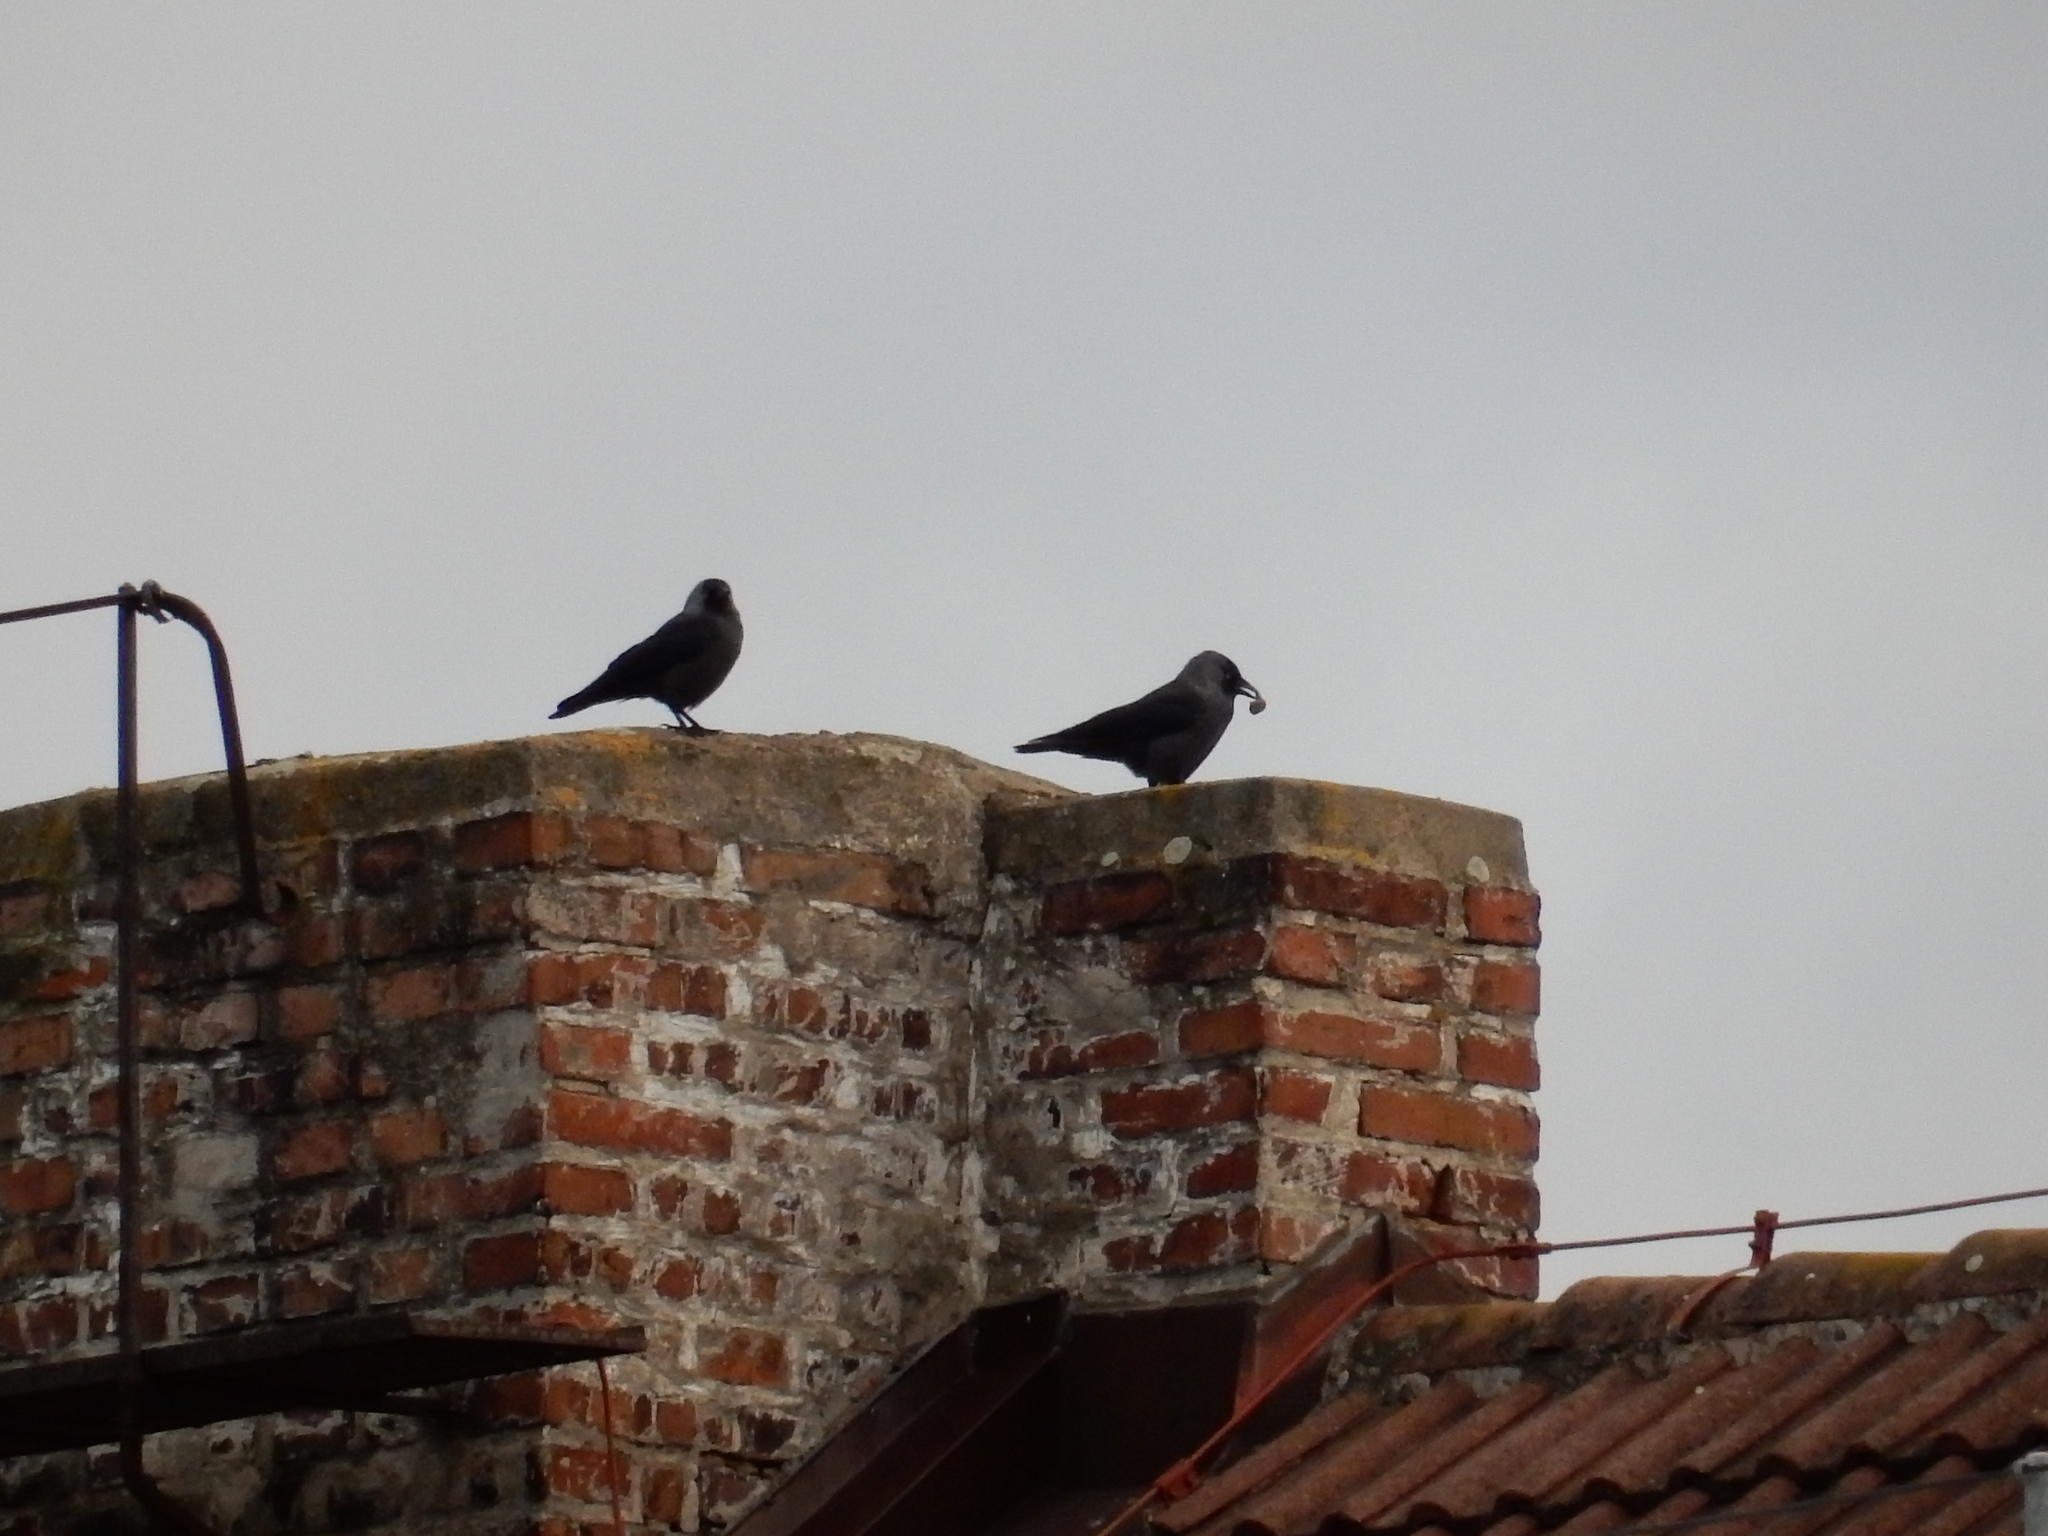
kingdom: Animalia
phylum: Chordata
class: Aves
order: Passeriformes
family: Corvidae
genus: Coloeus
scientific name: Coloeus monedula
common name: Western jackdaw
